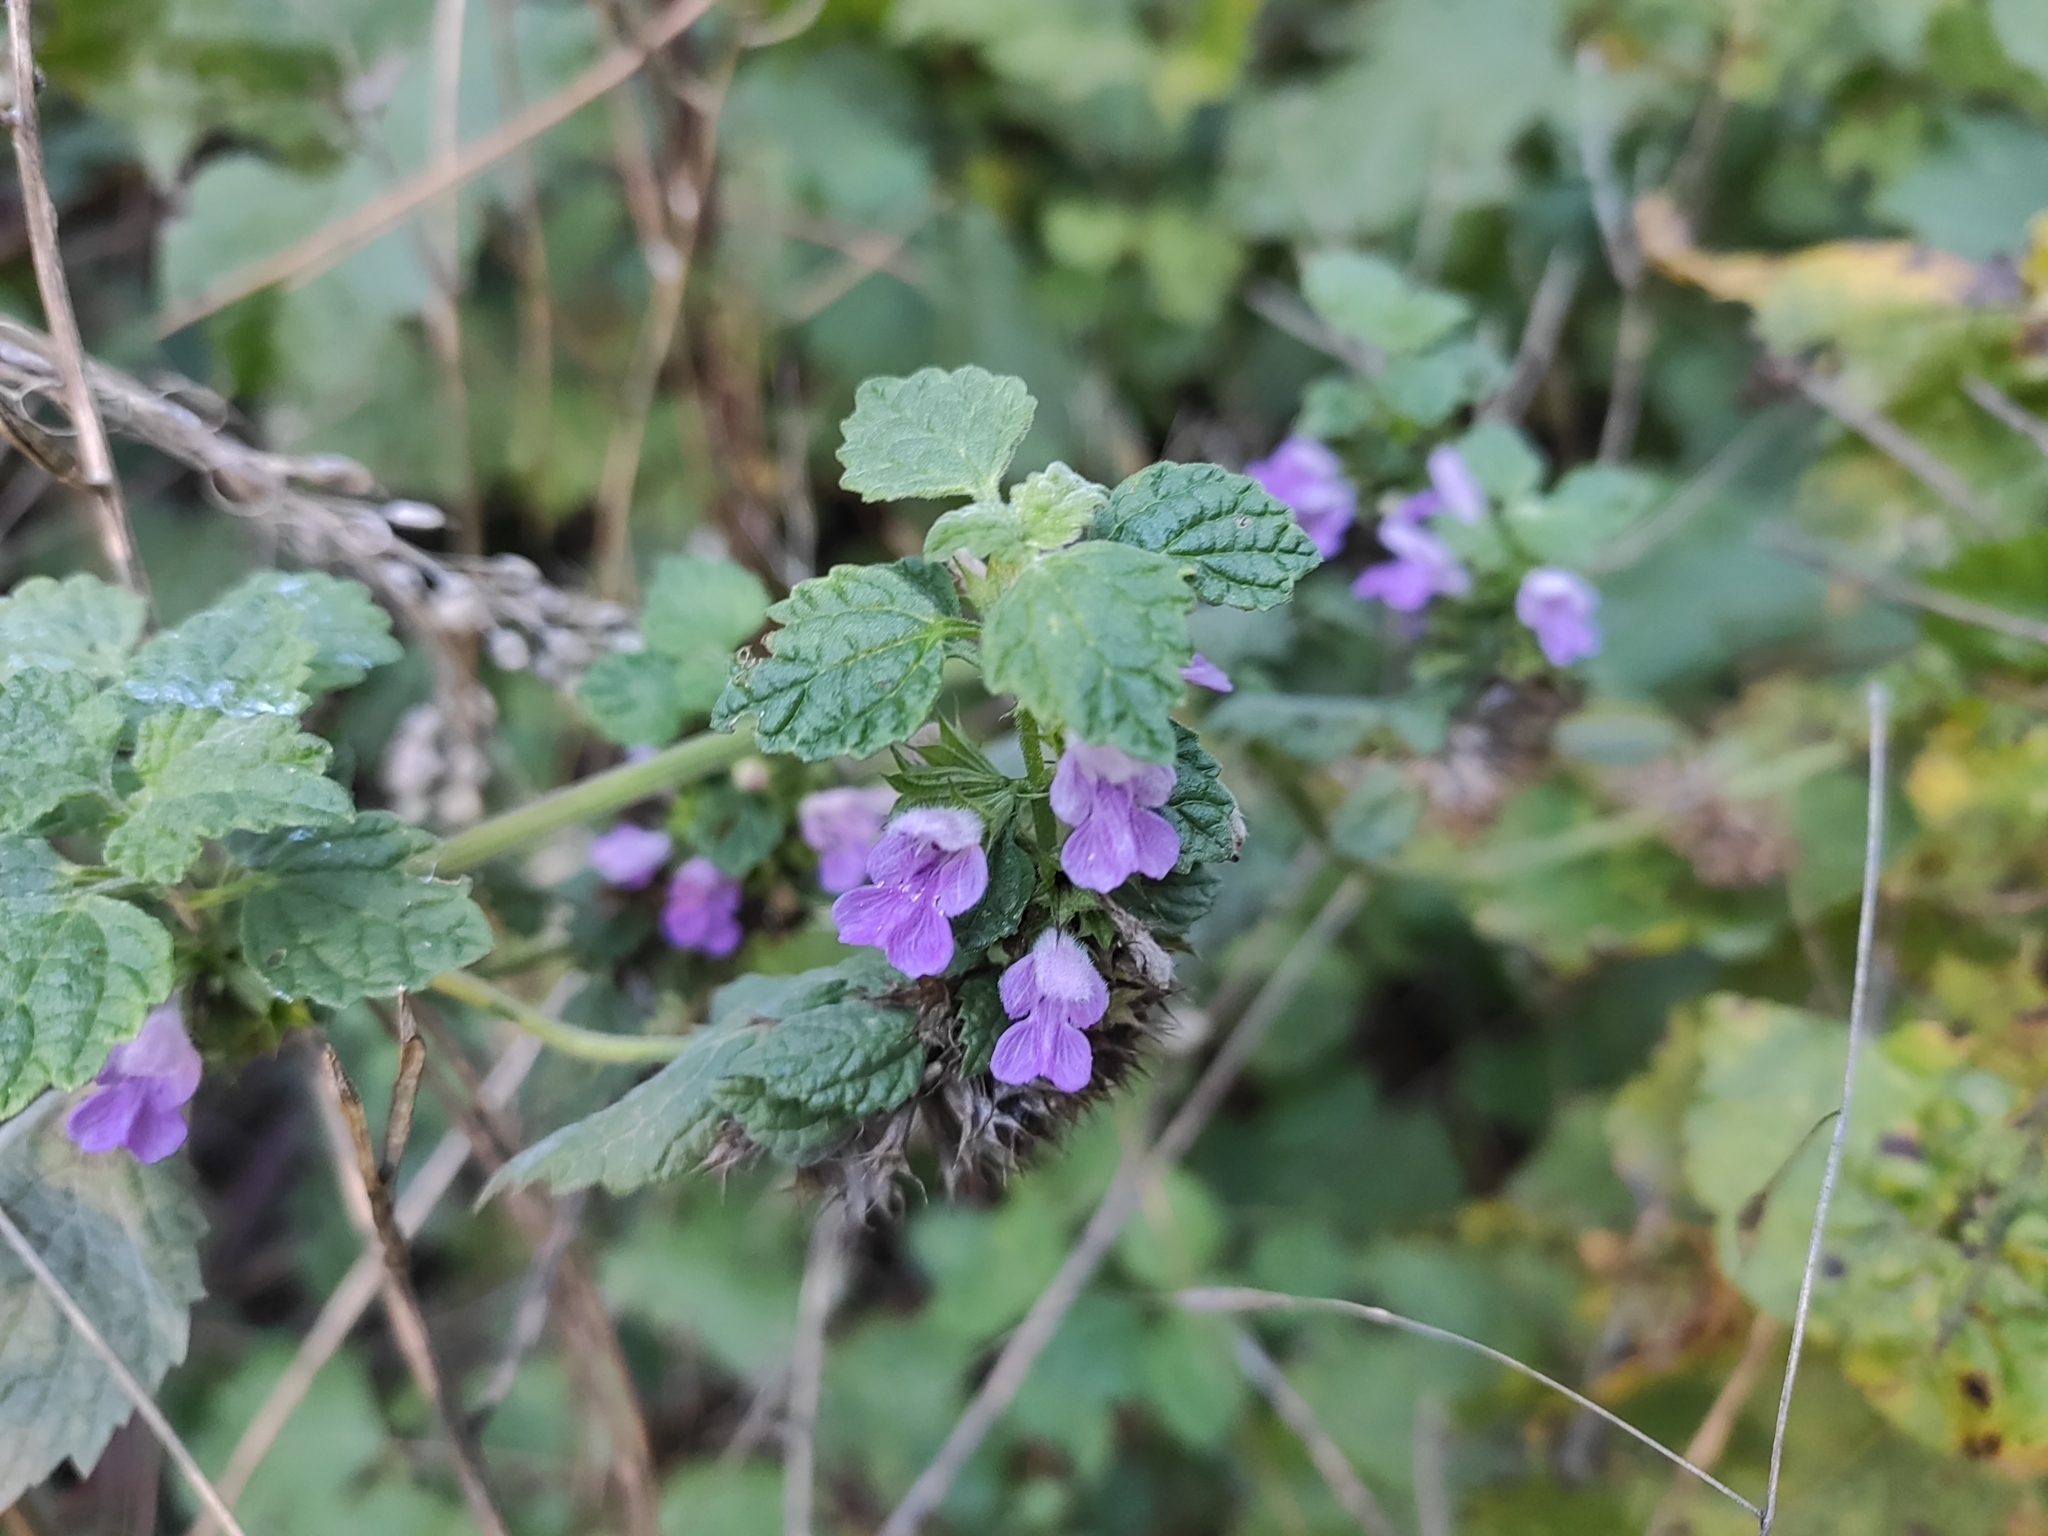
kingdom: Plantae
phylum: Tracheophyta
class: Magnoliopsida
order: Lamiales
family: Lamiaceae
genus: Ballota
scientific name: Ballota nigra
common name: Black horehound
